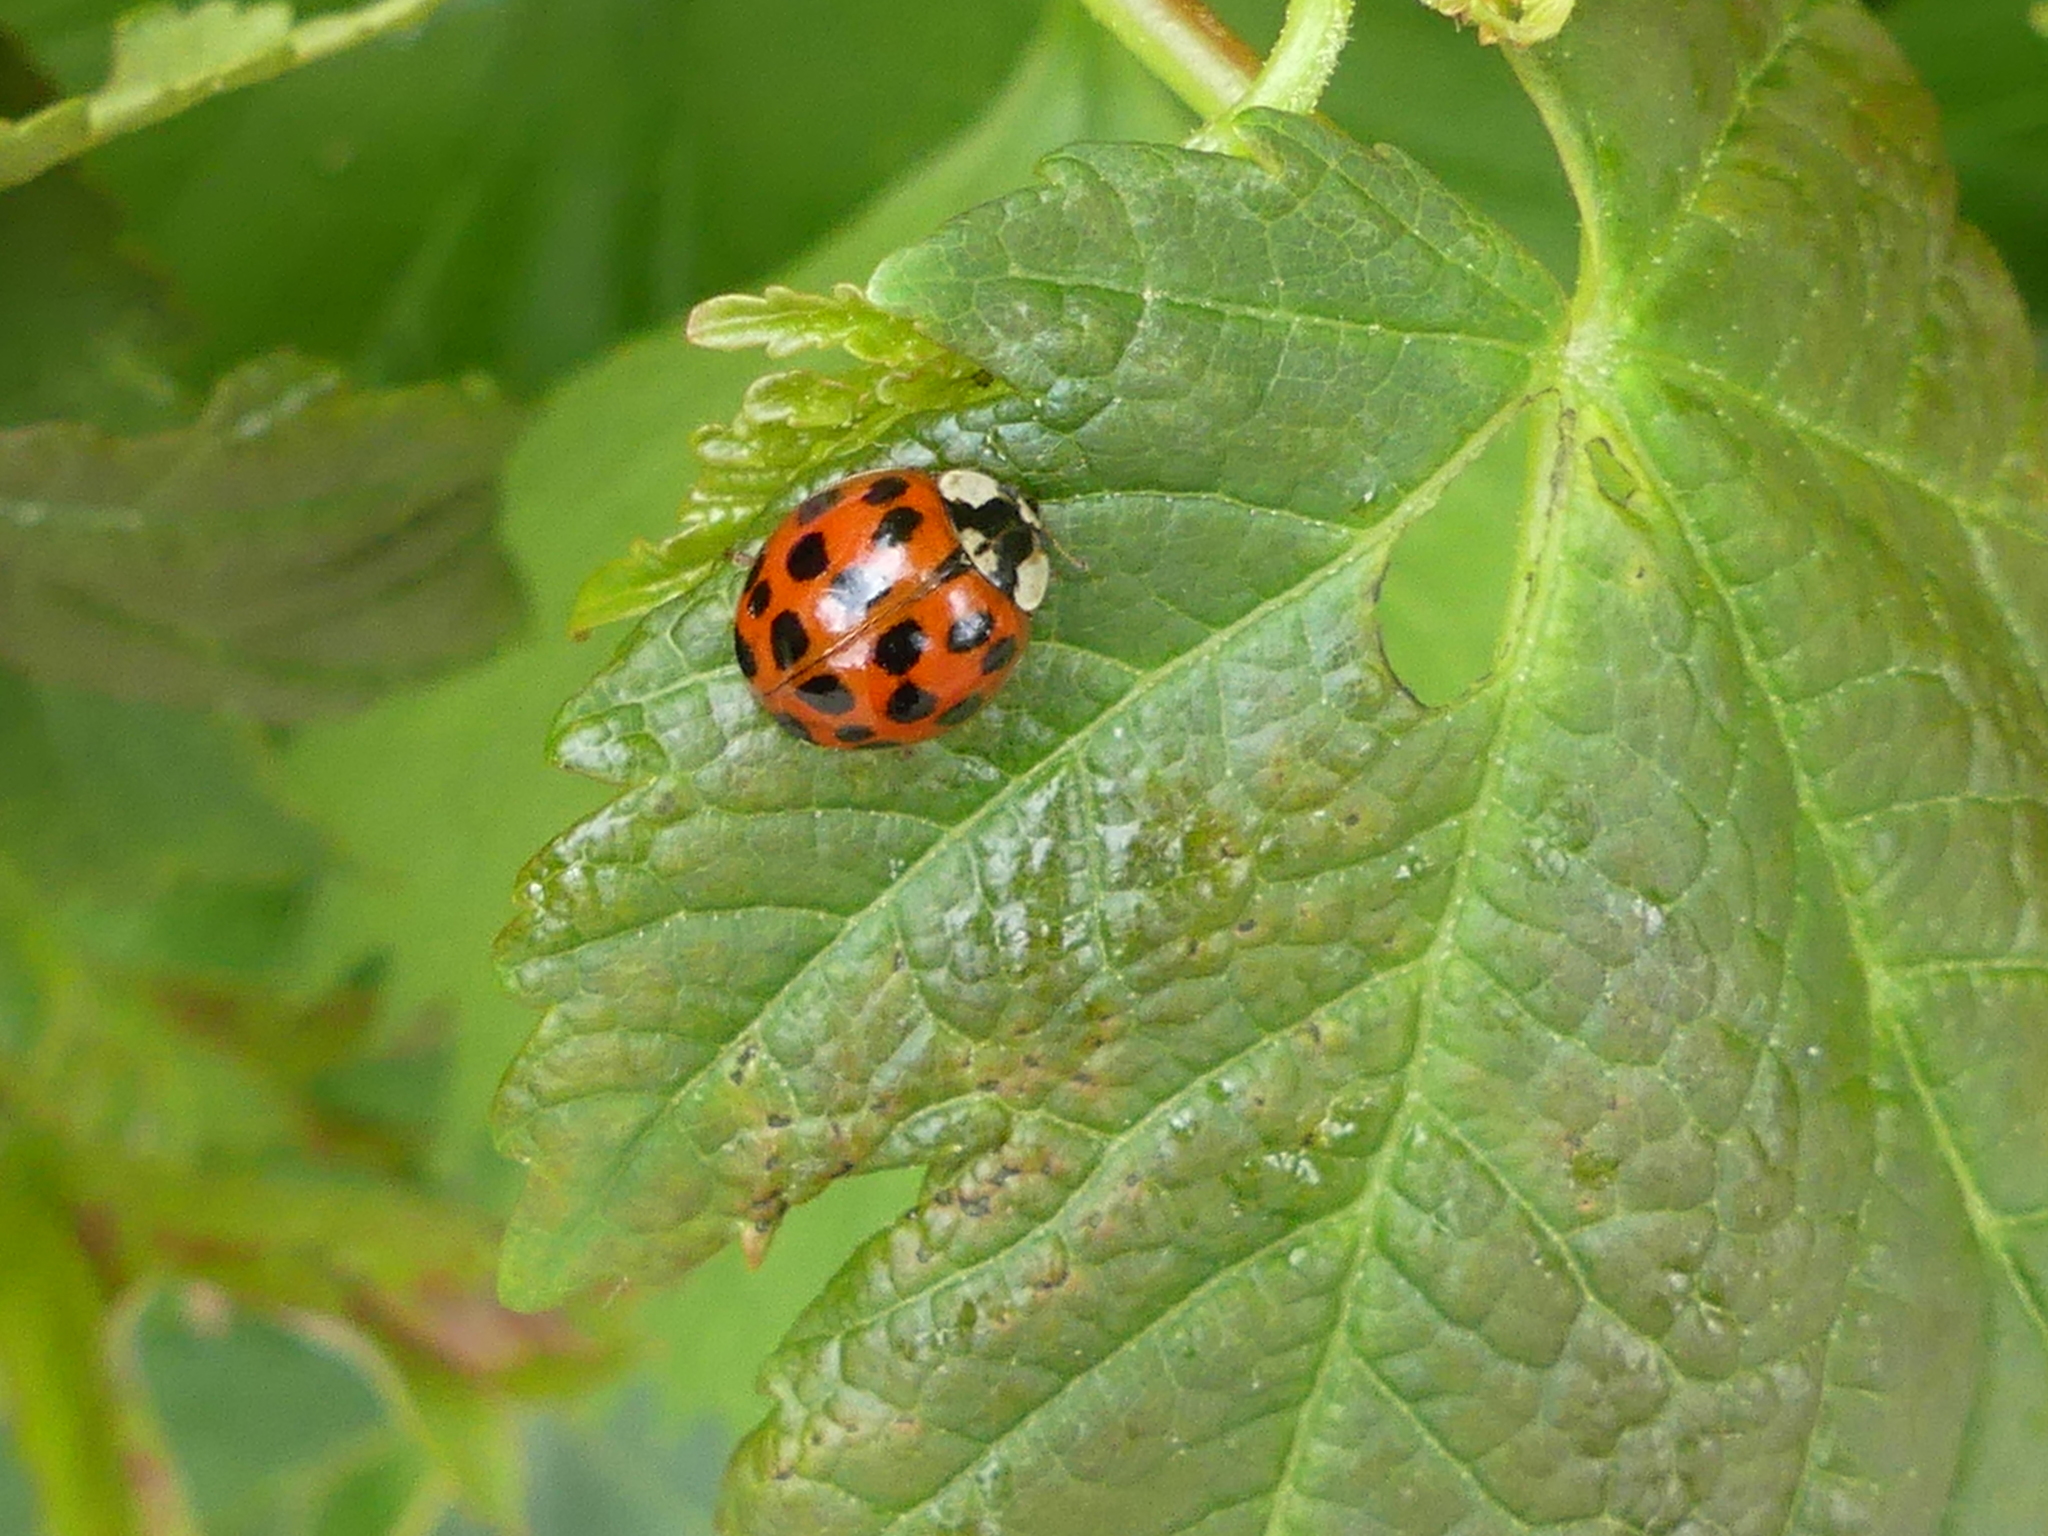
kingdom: Animalia
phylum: Arthropoda
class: Insecta
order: Coleoptera
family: Coccinellidae
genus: Harmonia
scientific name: Harmonia axyridis
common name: Harlequin ladybird
